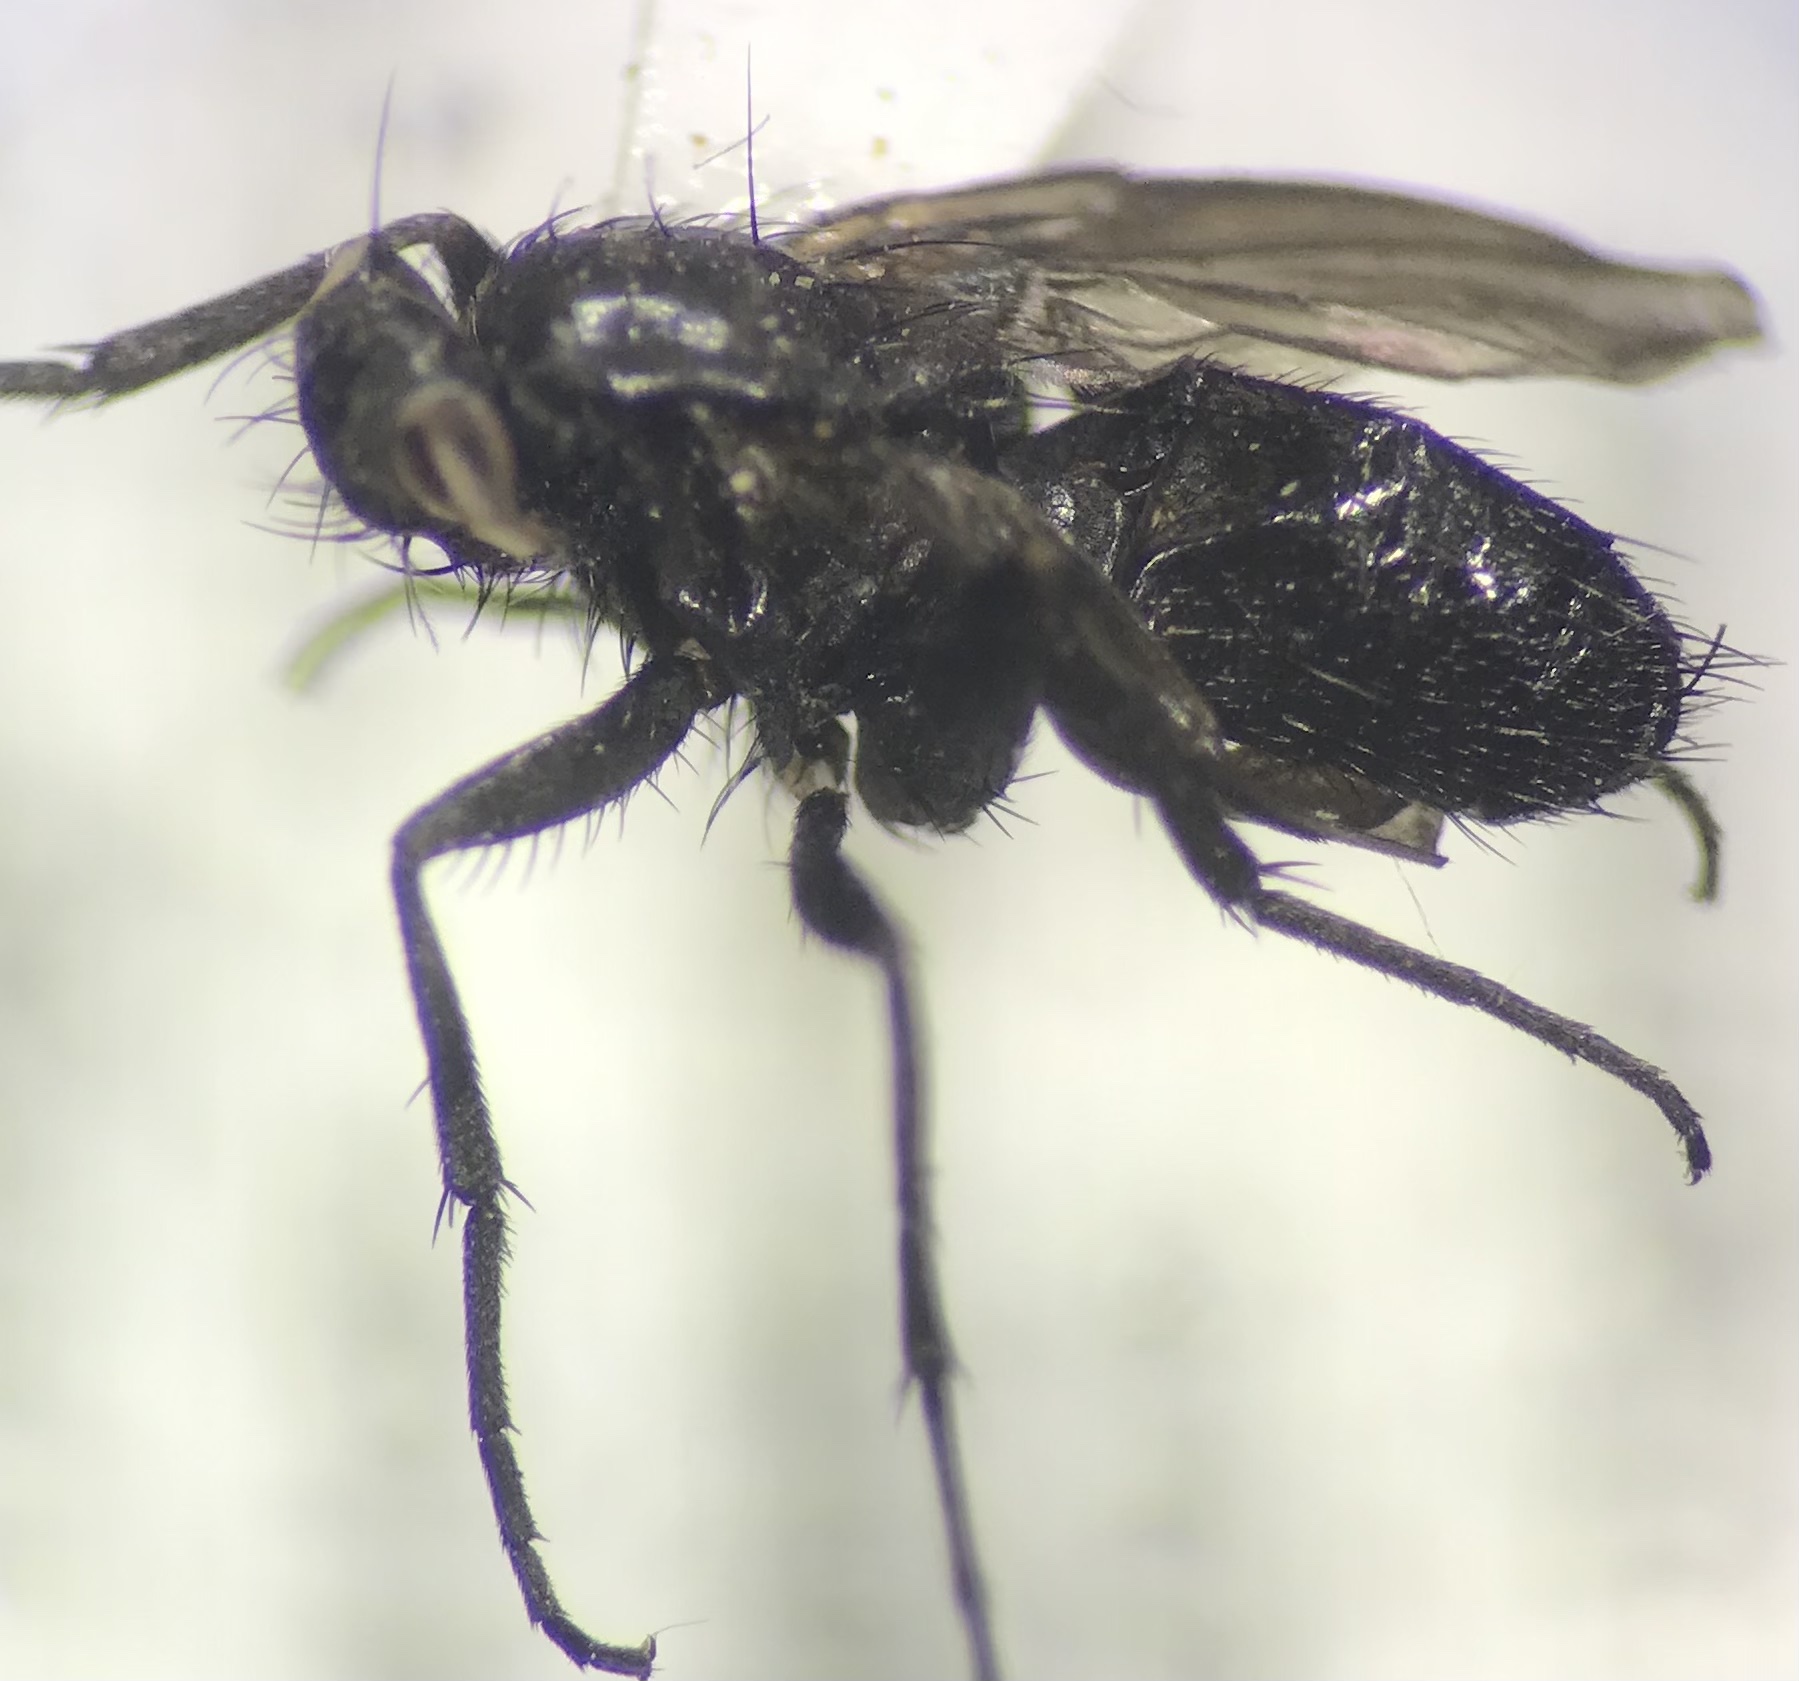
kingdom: Animalia
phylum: Arthropoda
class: Insecta
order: Diptera
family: Calliphoridae
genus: Melanophora
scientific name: Melanophora roralis
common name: Smoky-winged woodlouse-fly
